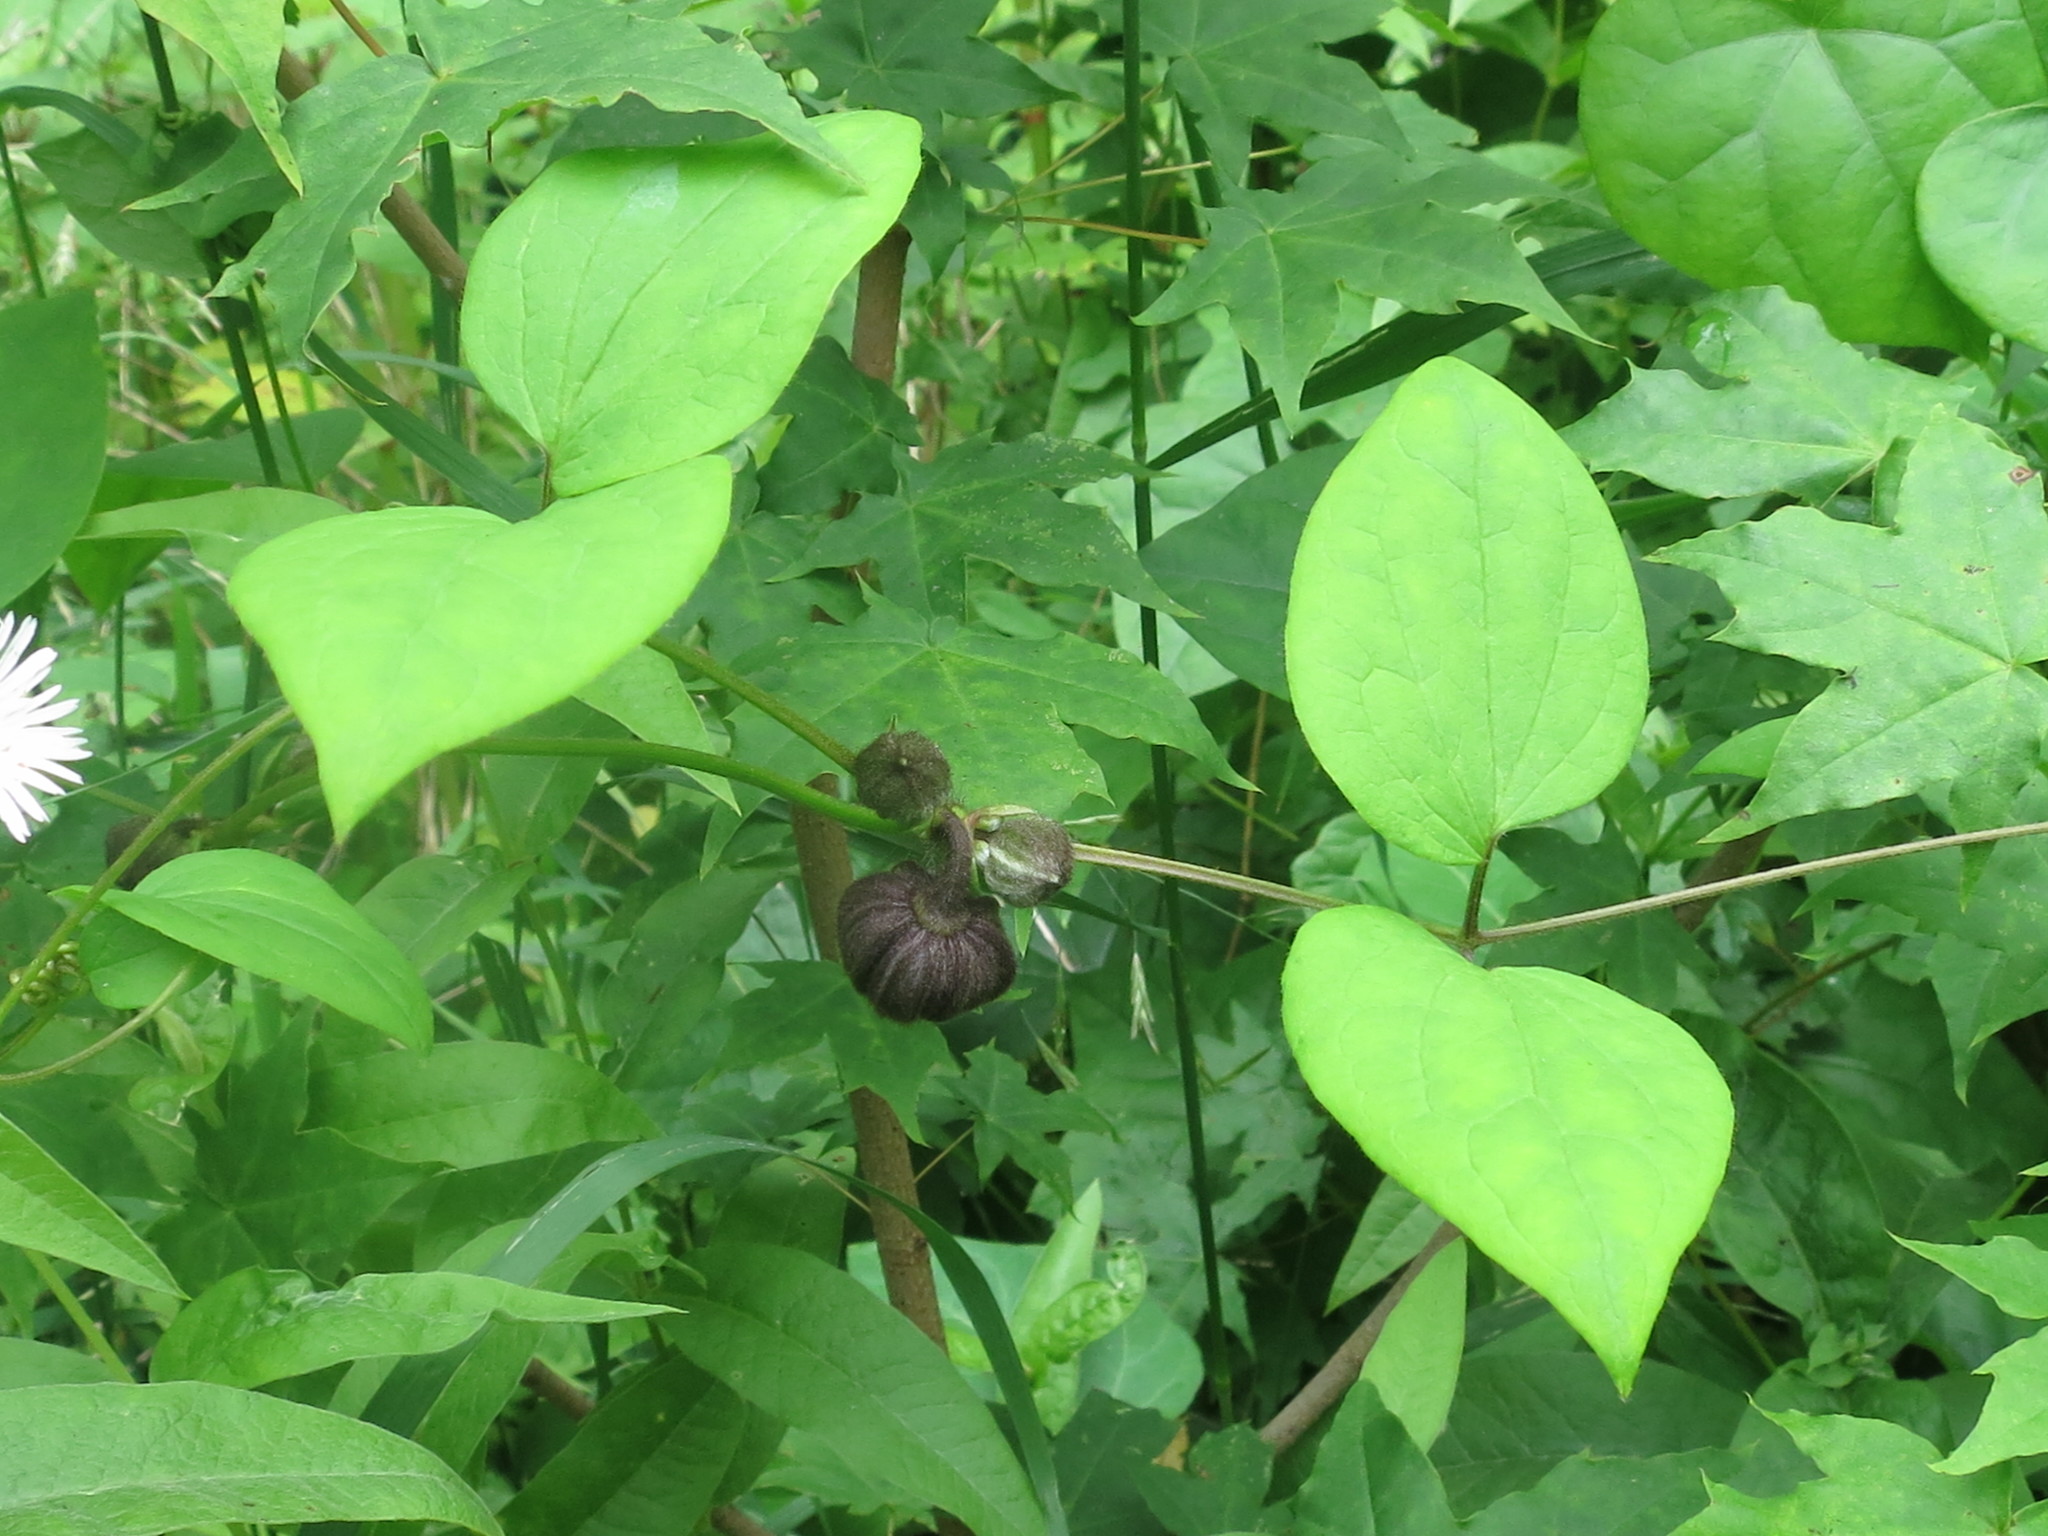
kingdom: Plantae
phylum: Tracheophyta
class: Magnoliopsida
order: Ranunculales
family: Ranunculaceae
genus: Clematis
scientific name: Clematis fusca
